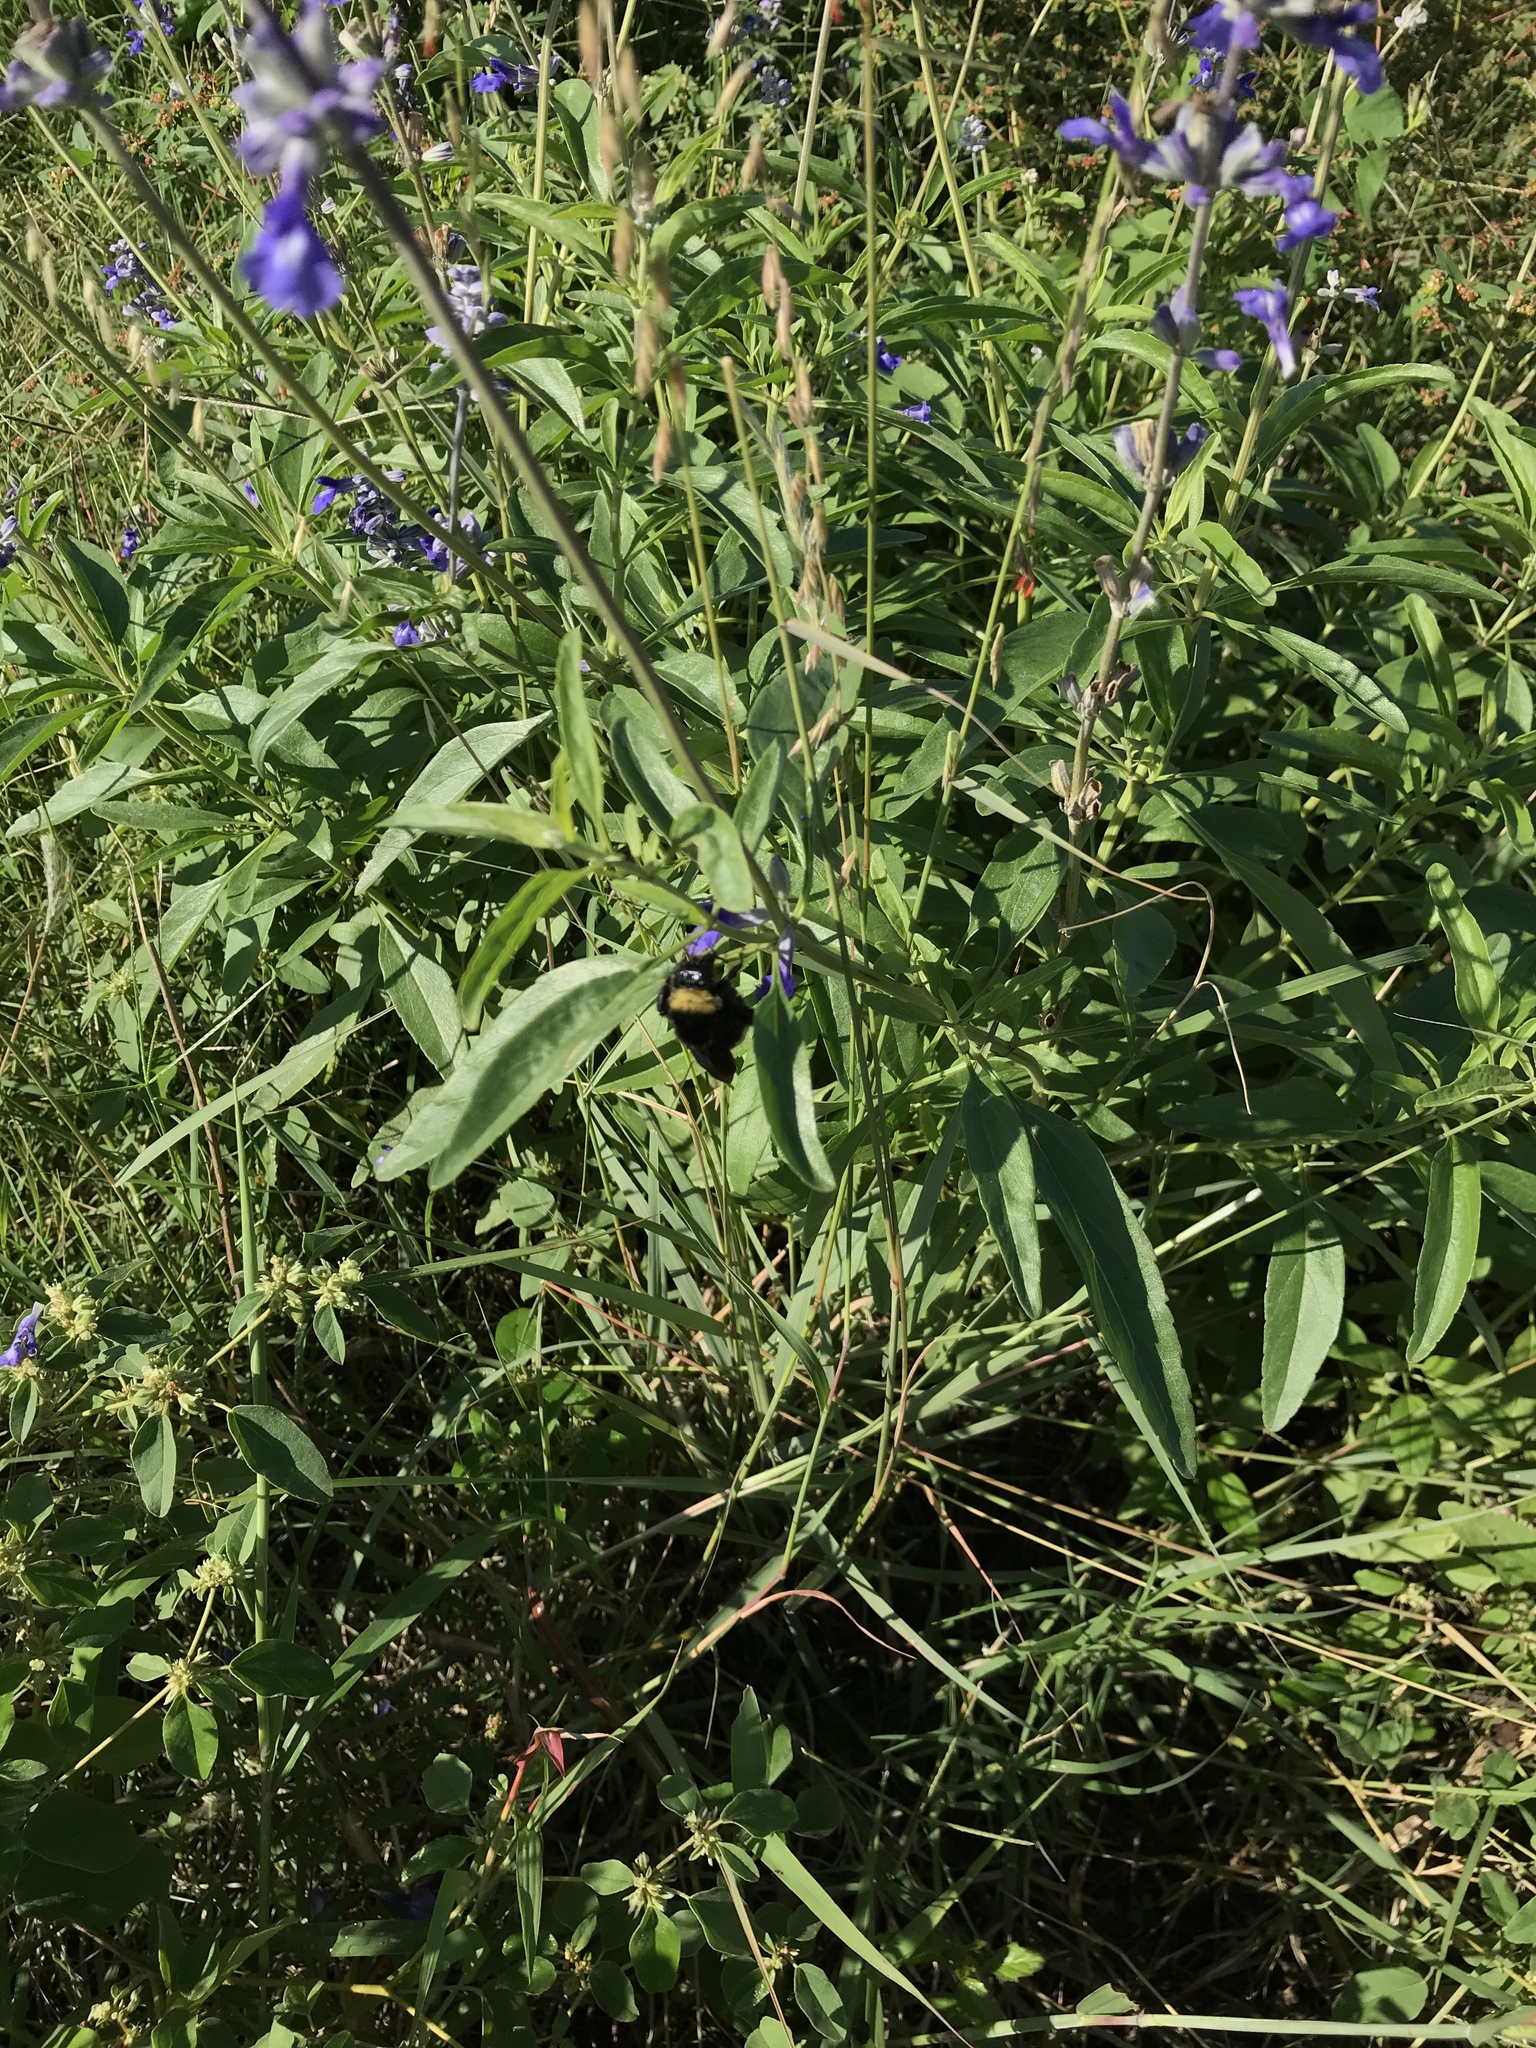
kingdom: Animalia
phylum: Arthropoda
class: Insecta
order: Hymenoptera
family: Apidae
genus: Bombus
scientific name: Bombus pensylvanicus
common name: Bumble bee
